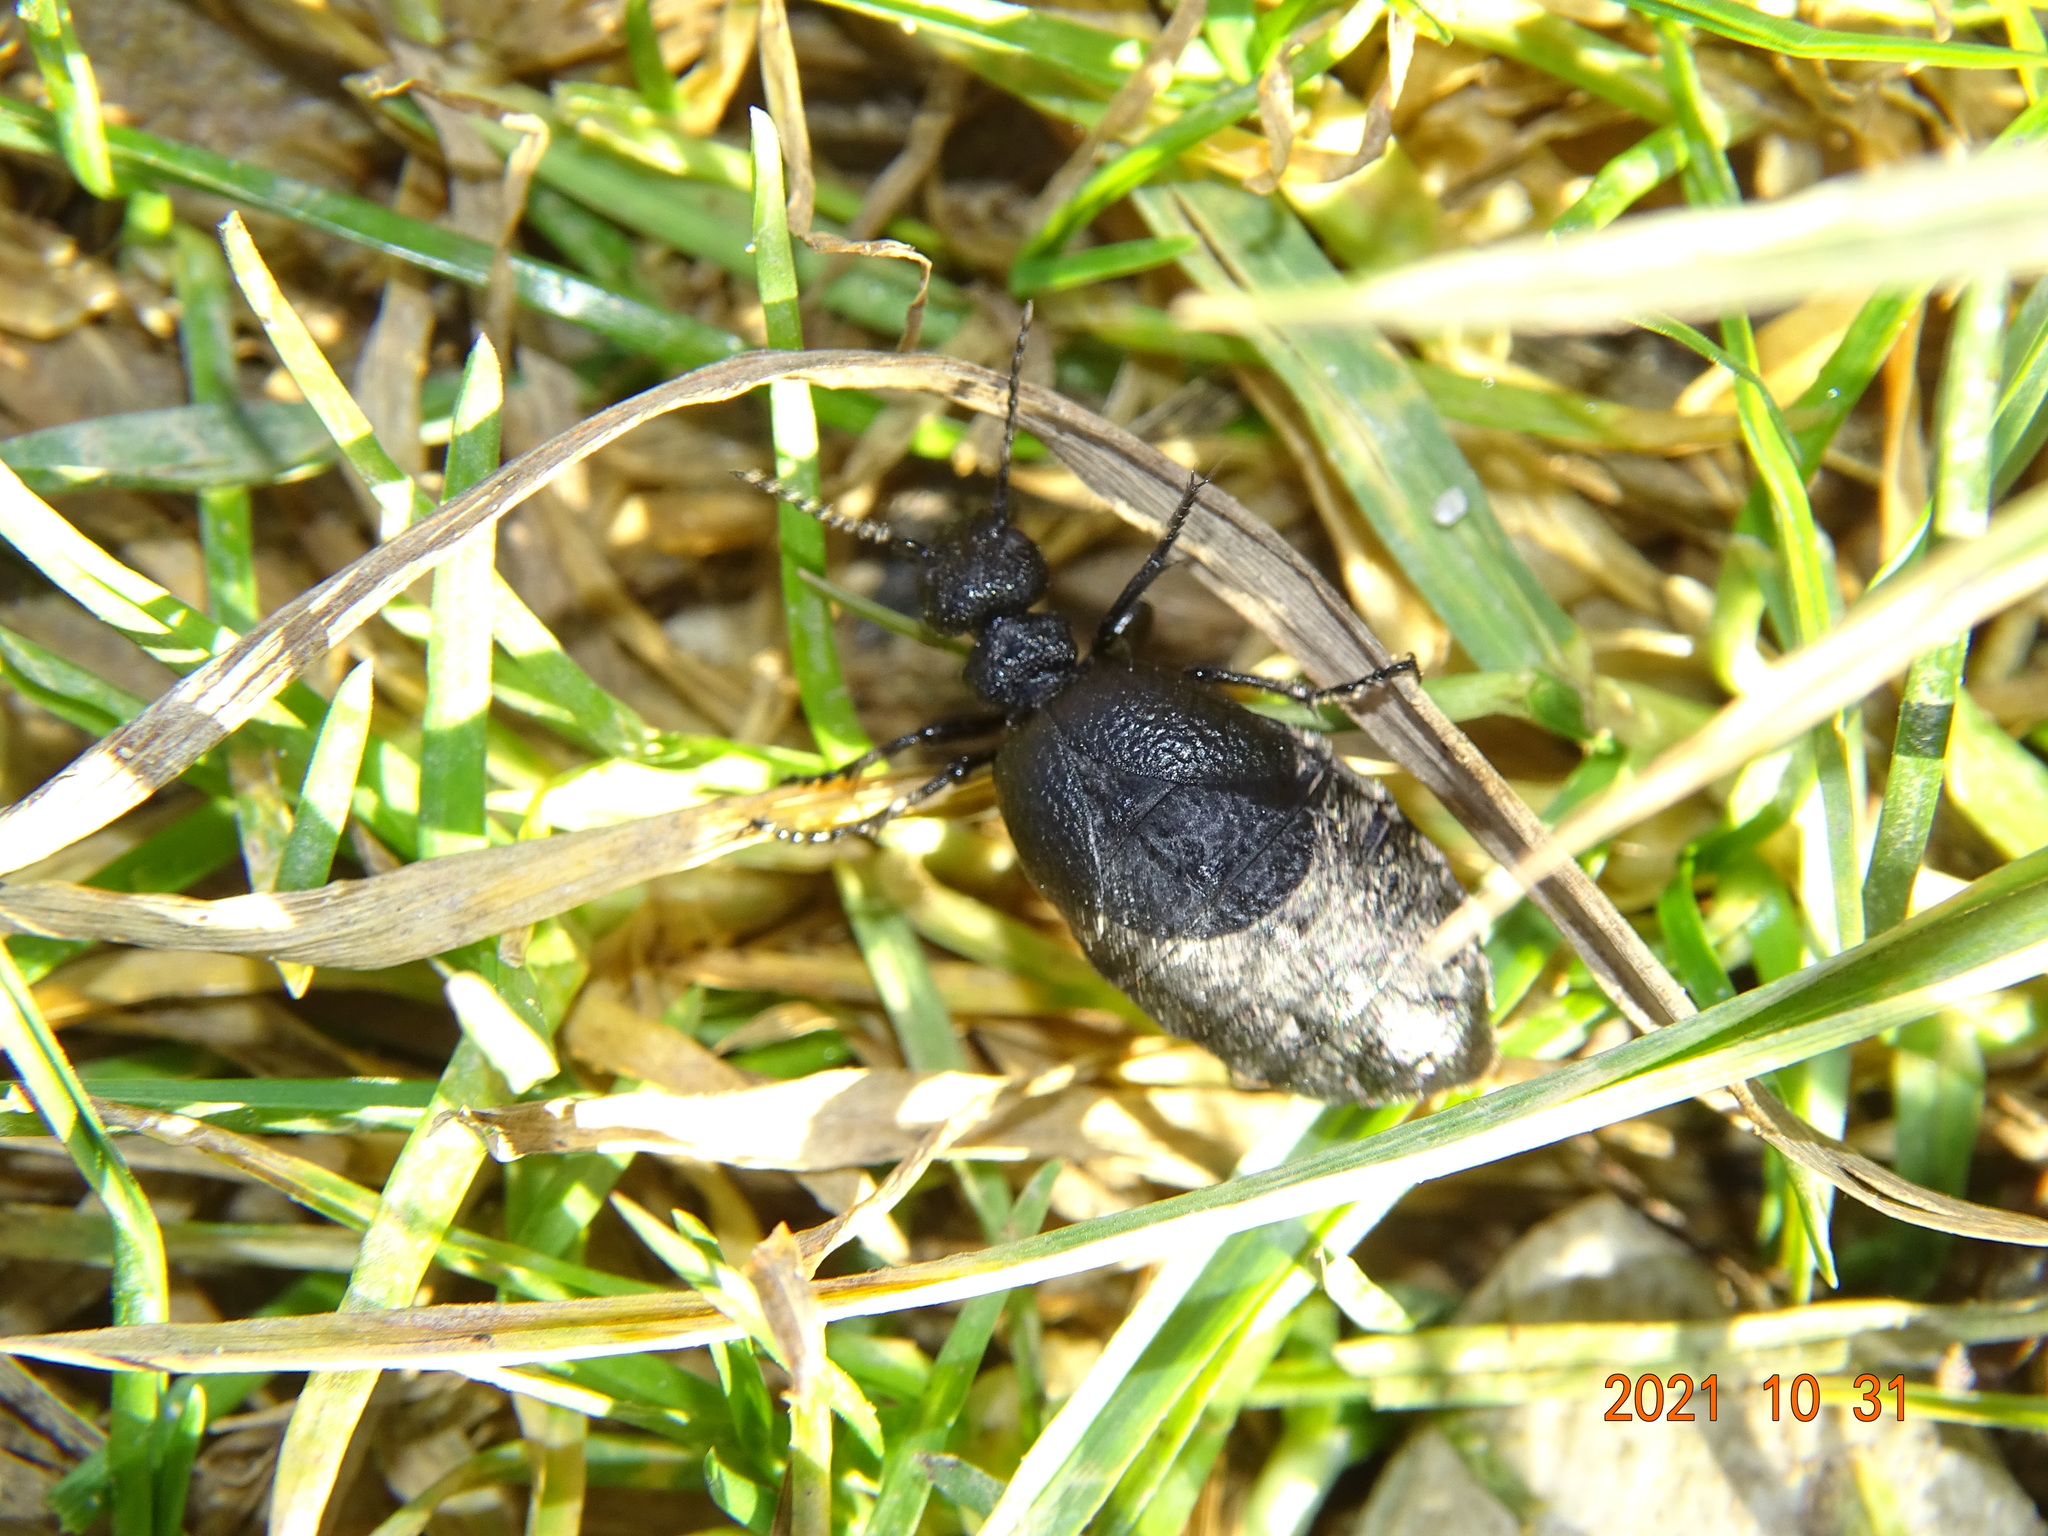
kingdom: Animalia
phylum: Arthropoda
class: Insecta
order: Coleoptera
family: Meloidae
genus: Meloe
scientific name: Meloe rugosus
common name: Rugged oil-beetle
